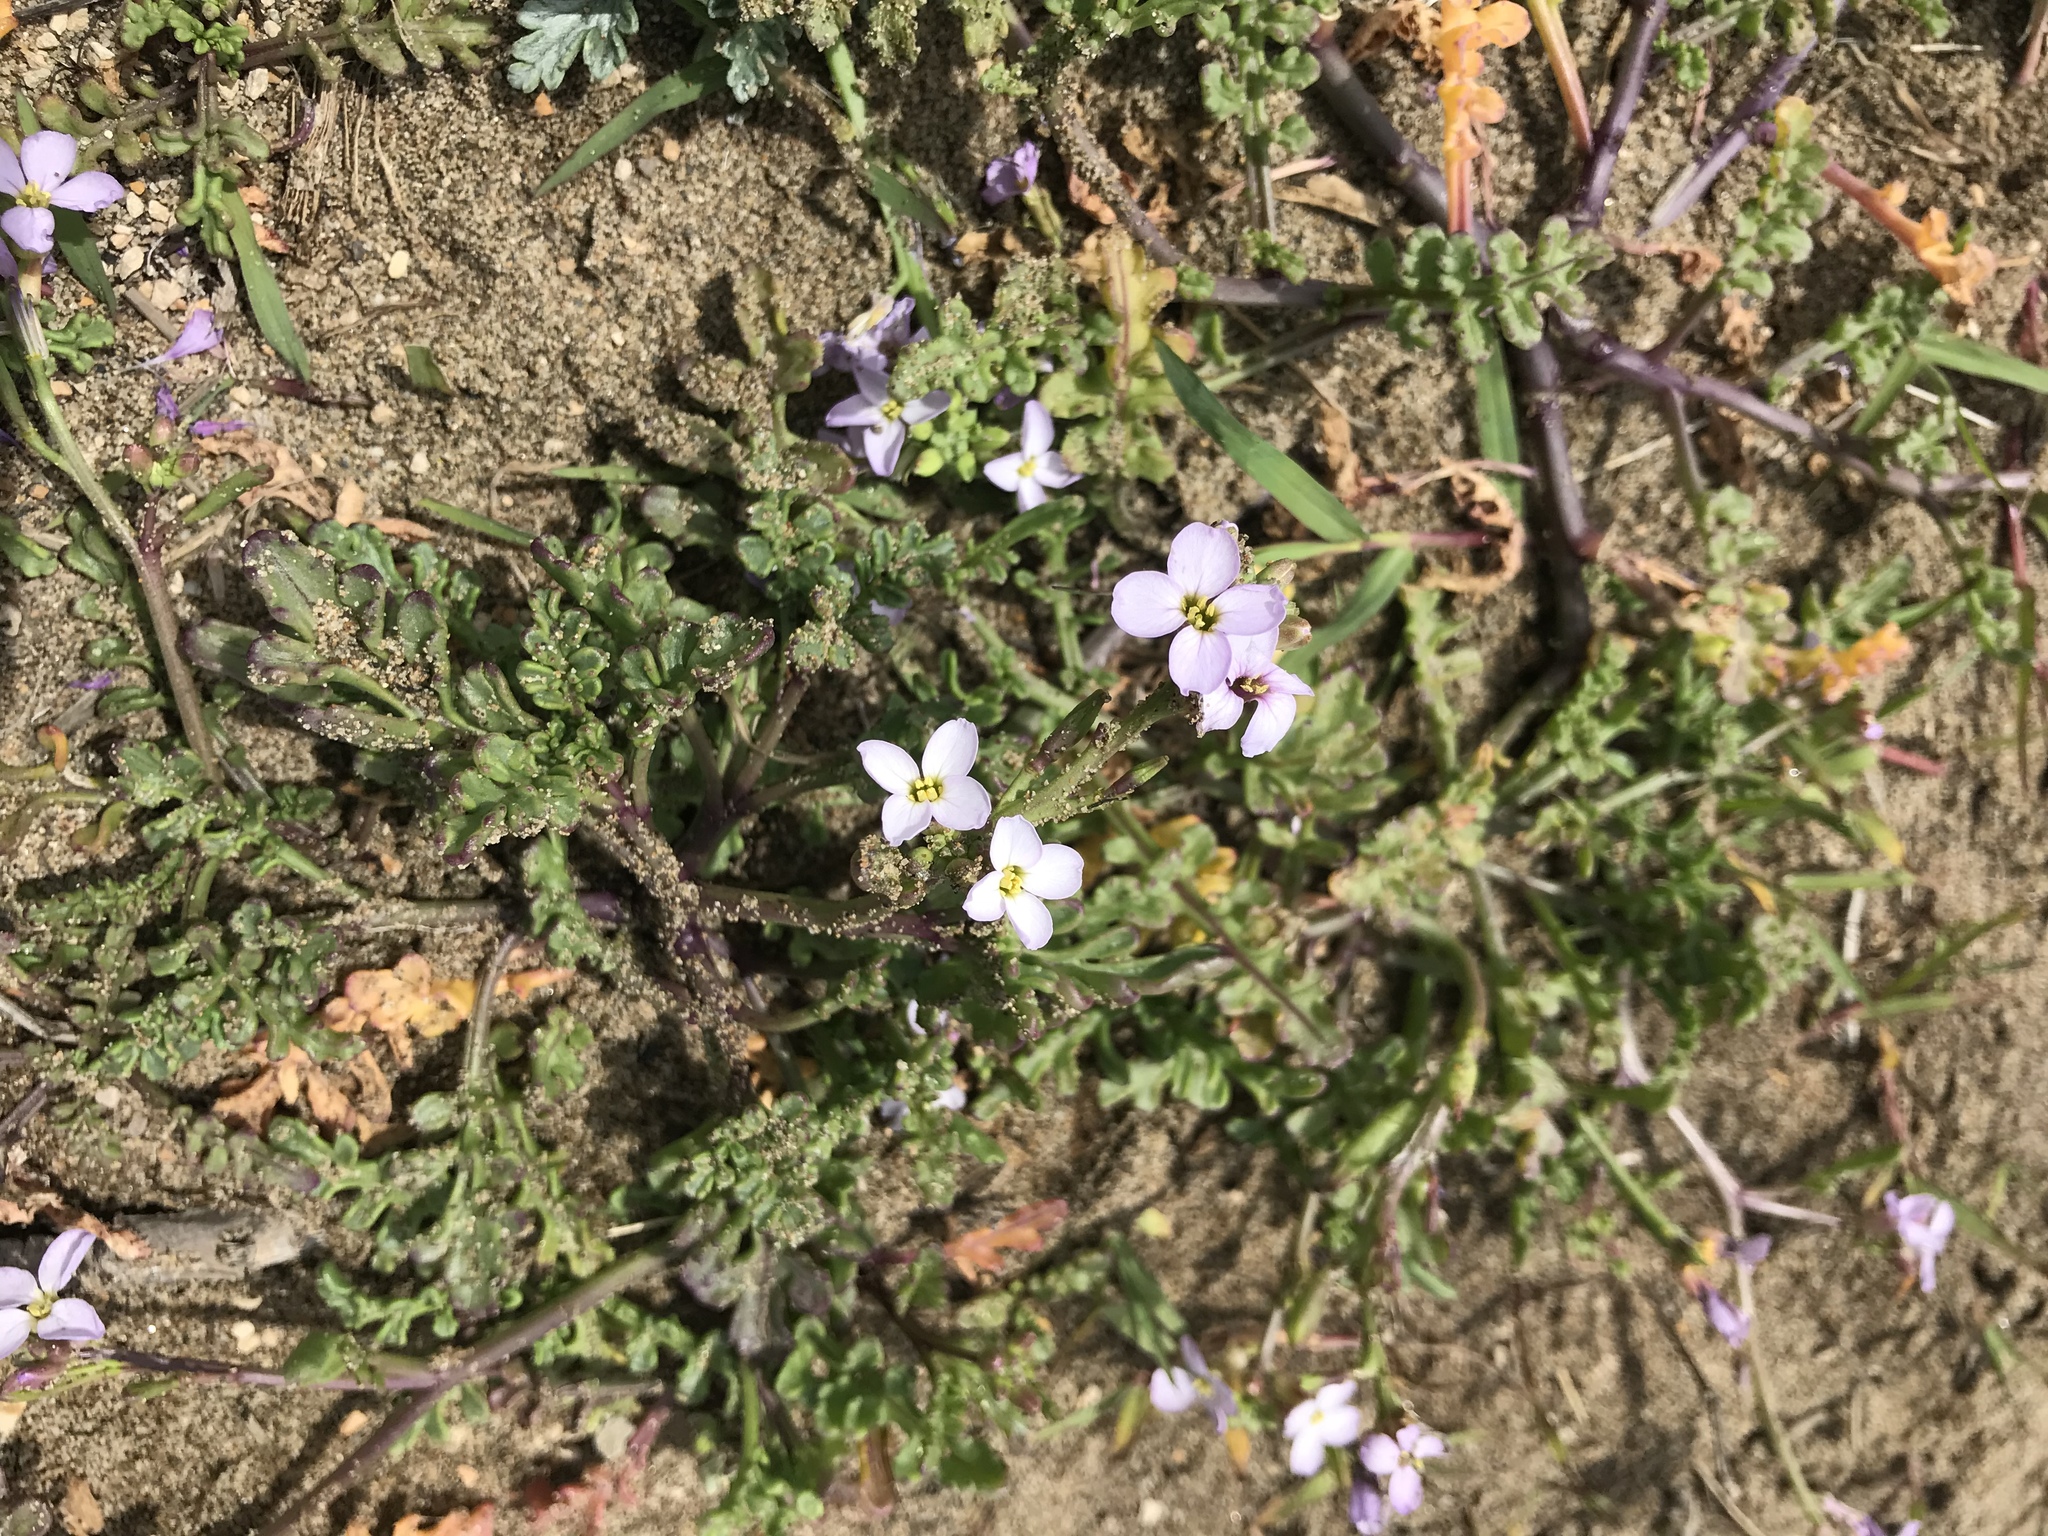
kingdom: Plantae
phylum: Tracheophyta
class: Magnoliopsida
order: Brassicales
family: Brassicaceae
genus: Cakile
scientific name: Cakile maritima
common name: Sea rocket
